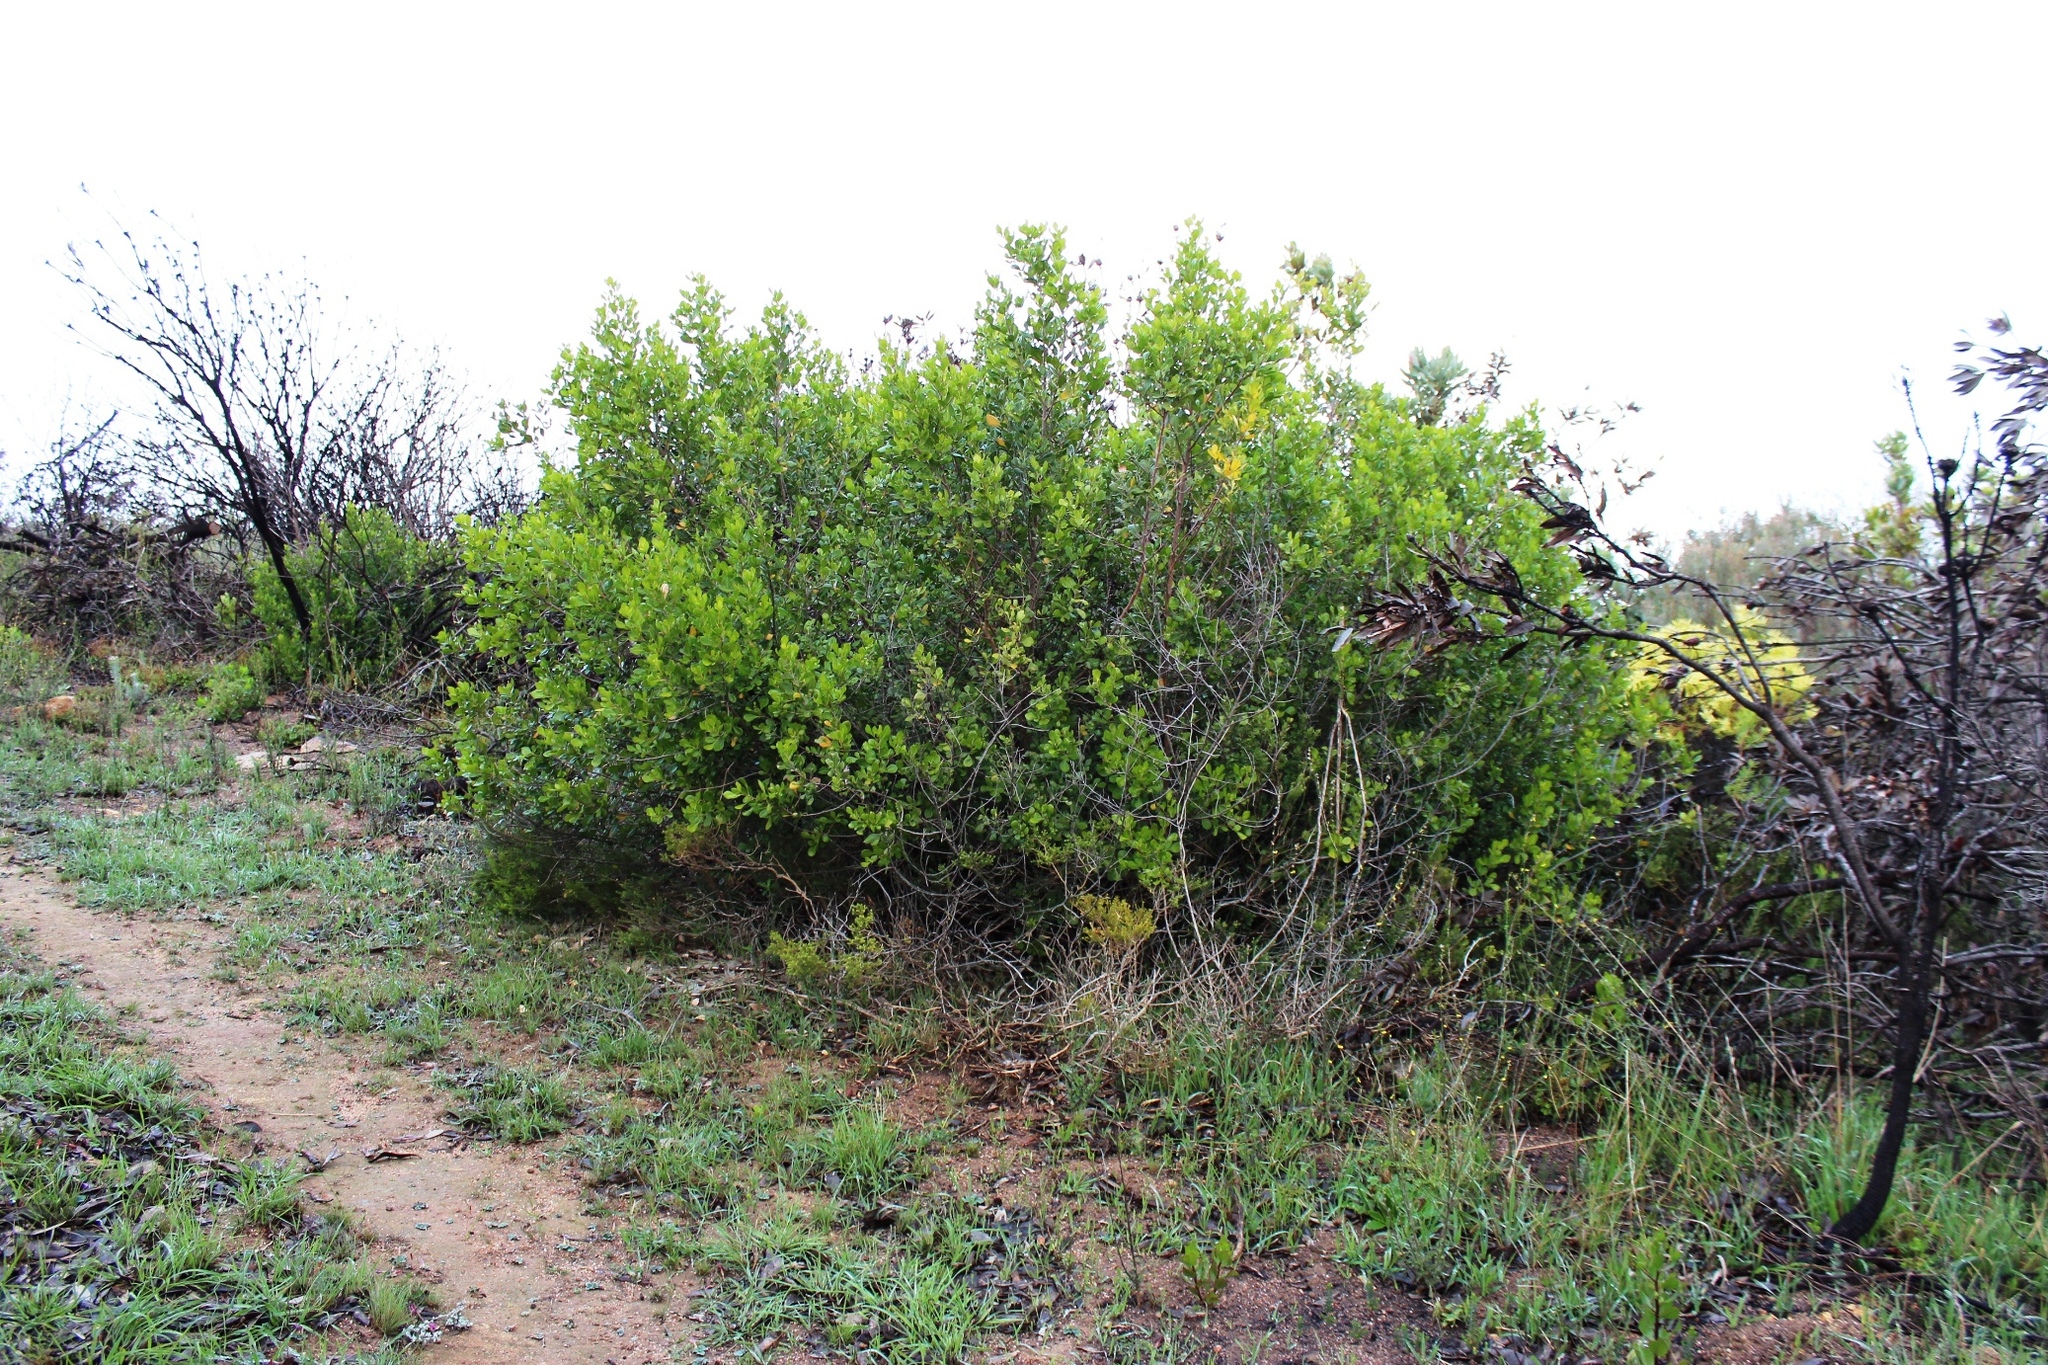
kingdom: Plantae
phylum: Tracheophyta
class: Magnoliopsida
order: Sapindales
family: Anacardiaceae
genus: Searsia
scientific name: Searsia lucida
